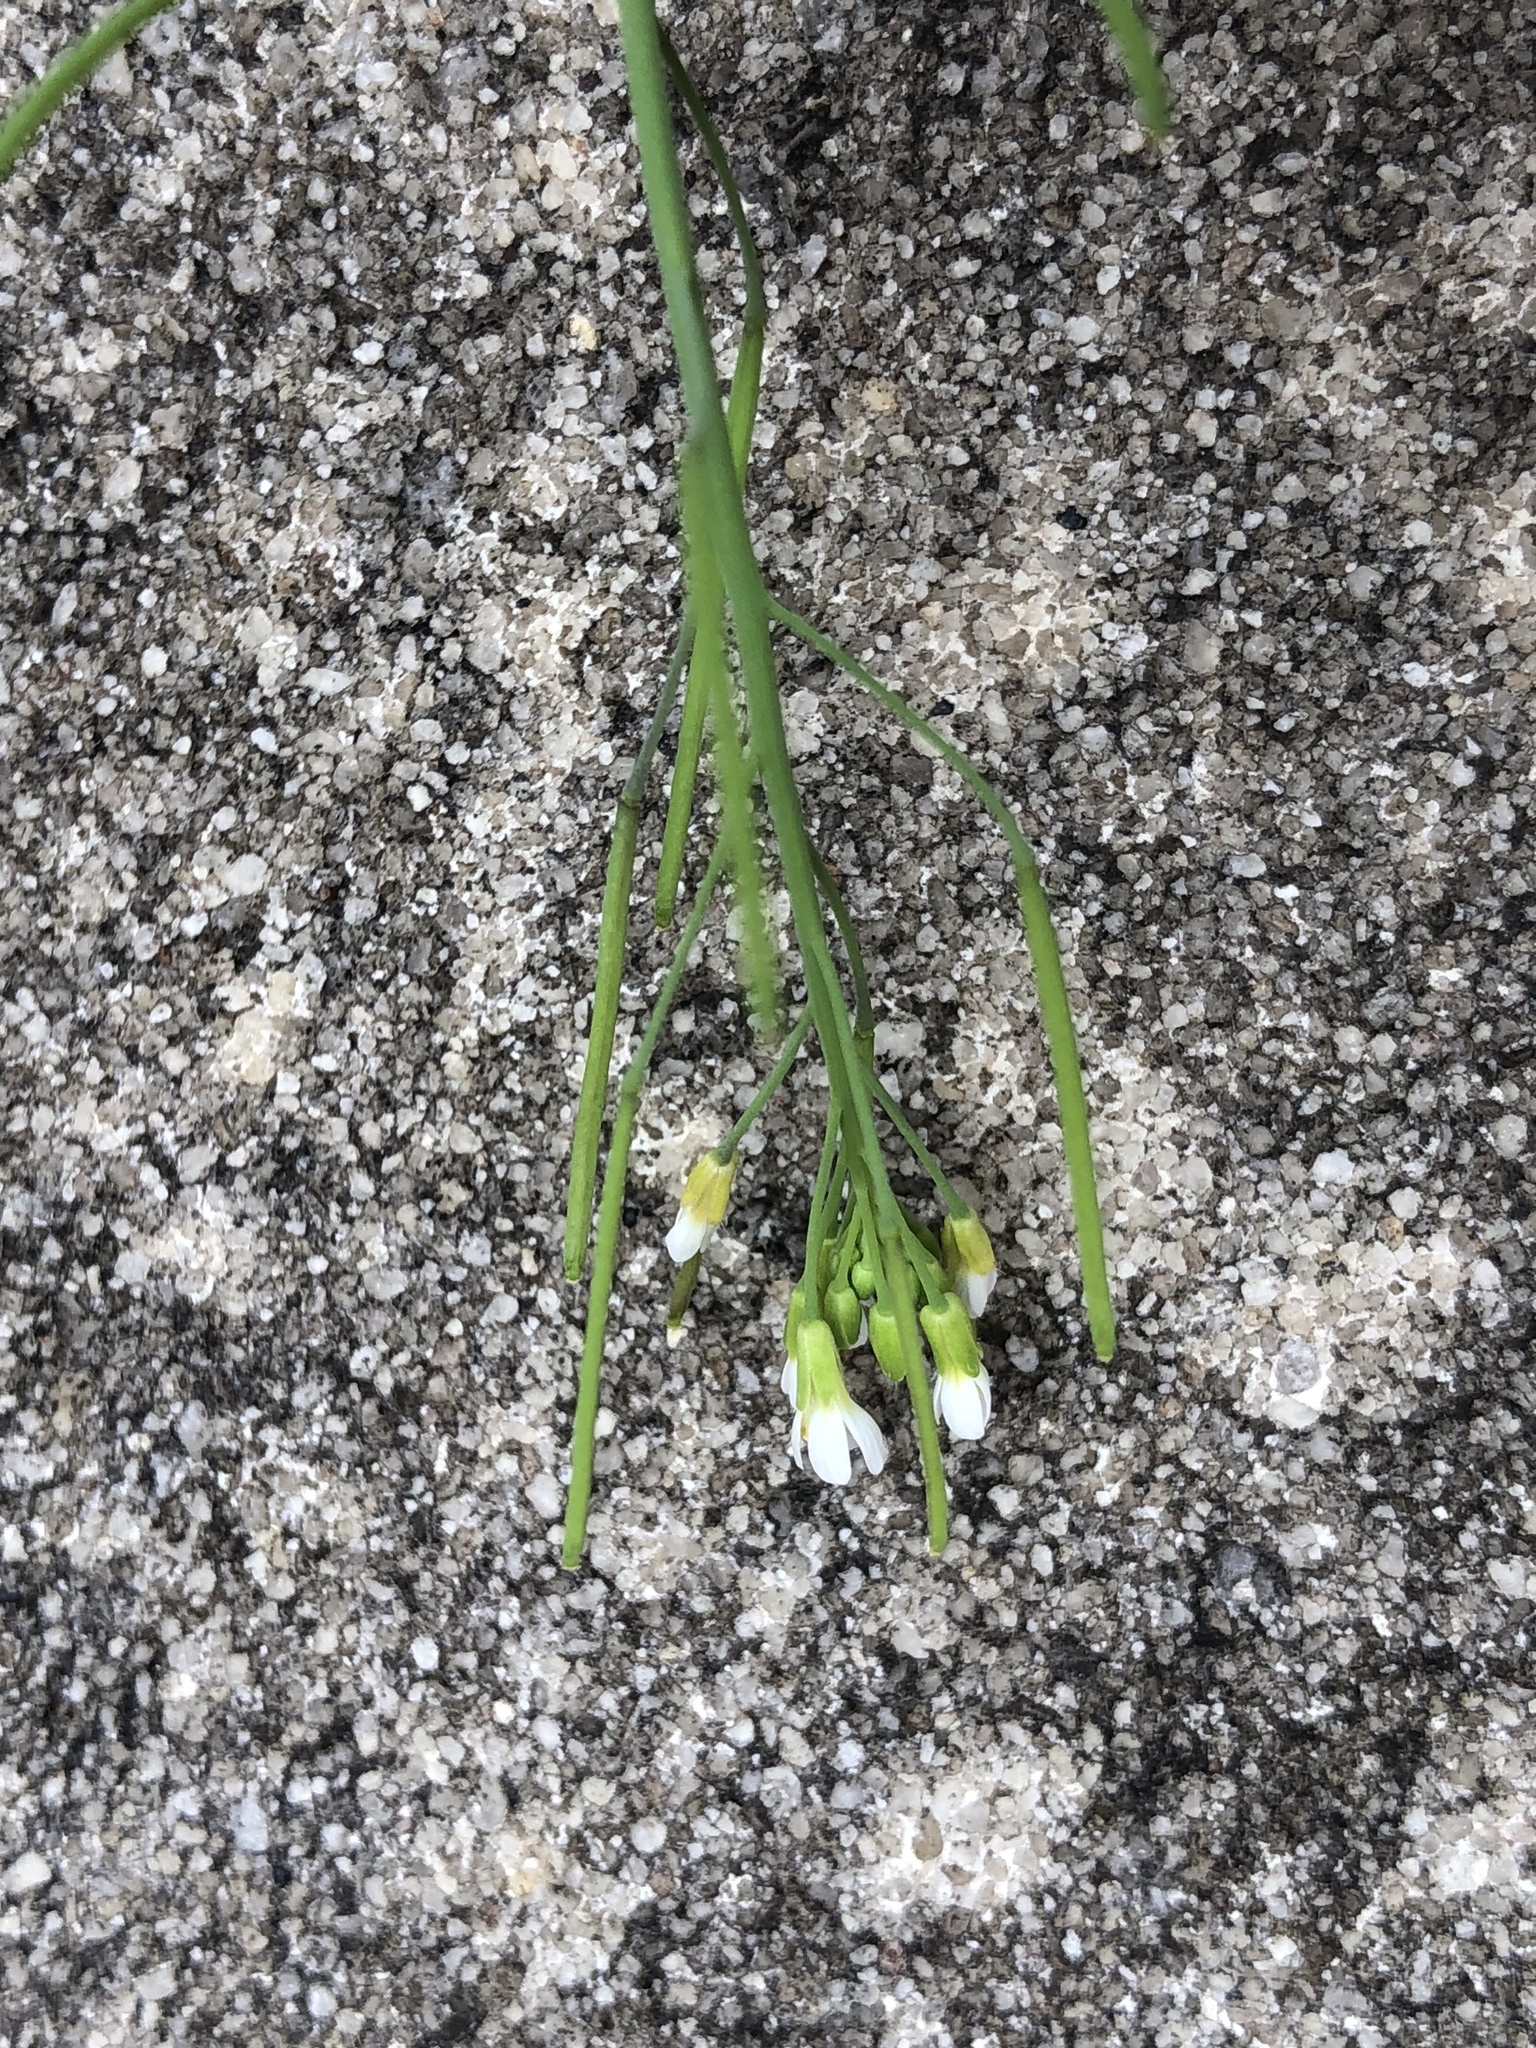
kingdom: Plantae
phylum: Tracheophyta
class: Magnoliopsida
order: Brassicales
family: Brassicaceae
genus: Arabidopsis
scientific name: Arabidopsis thaliana
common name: Thale cress
